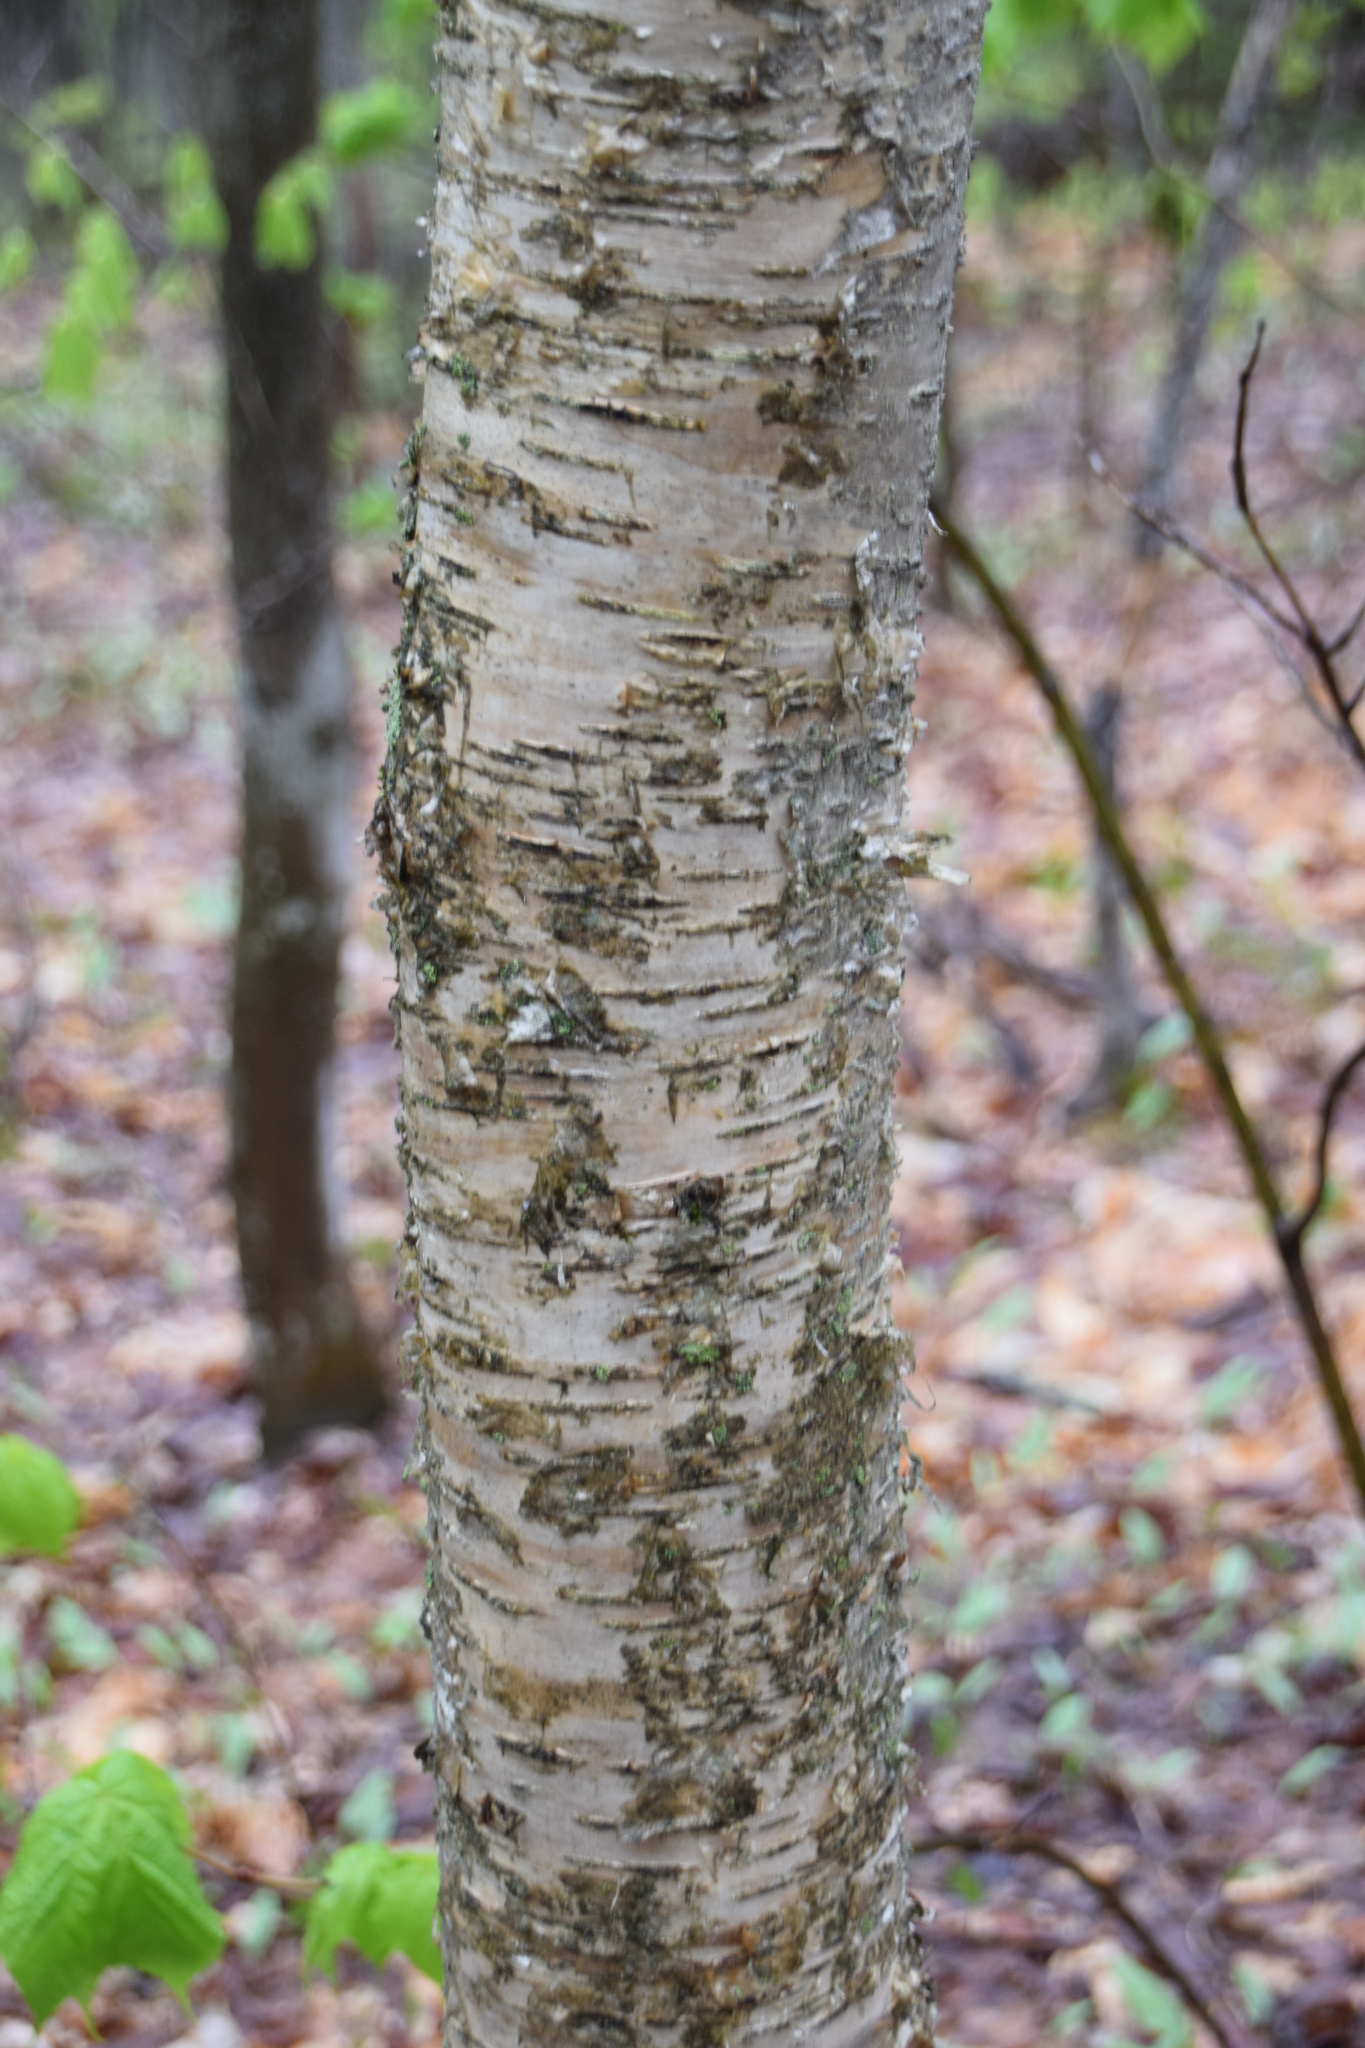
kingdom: Plantae
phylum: Tracheophyta
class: Magnoliopsida
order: Fagales
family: Betulaceae
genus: Betula
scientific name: Betula alleghaniensis
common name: Yellow birch
